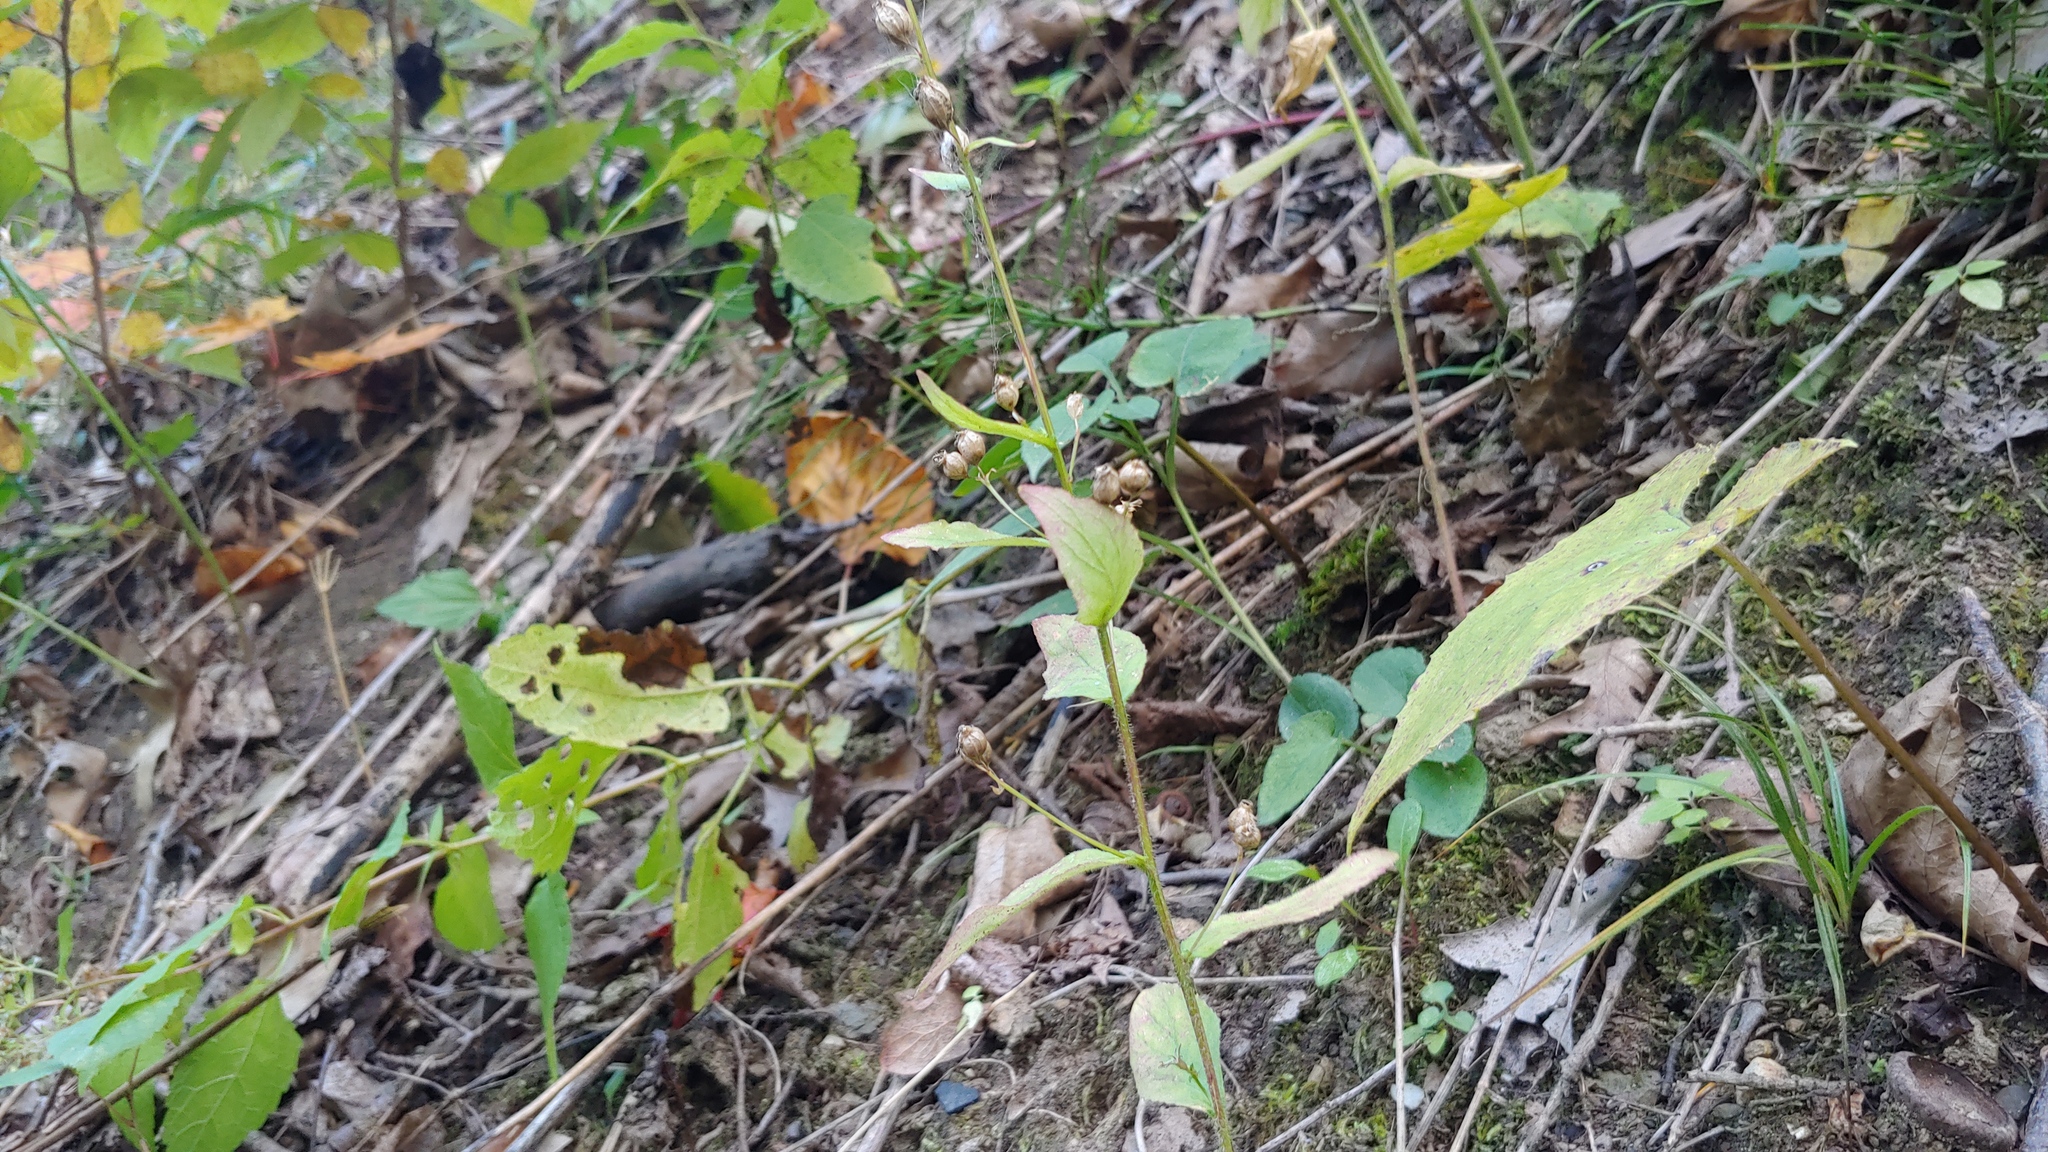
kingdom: Plantae
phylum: Tracheophyta
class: Magnoliopsida
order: Asterales
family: Campanulaceae
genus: Lobelia
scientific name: Lobelia inflata
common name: Indian tobacco
